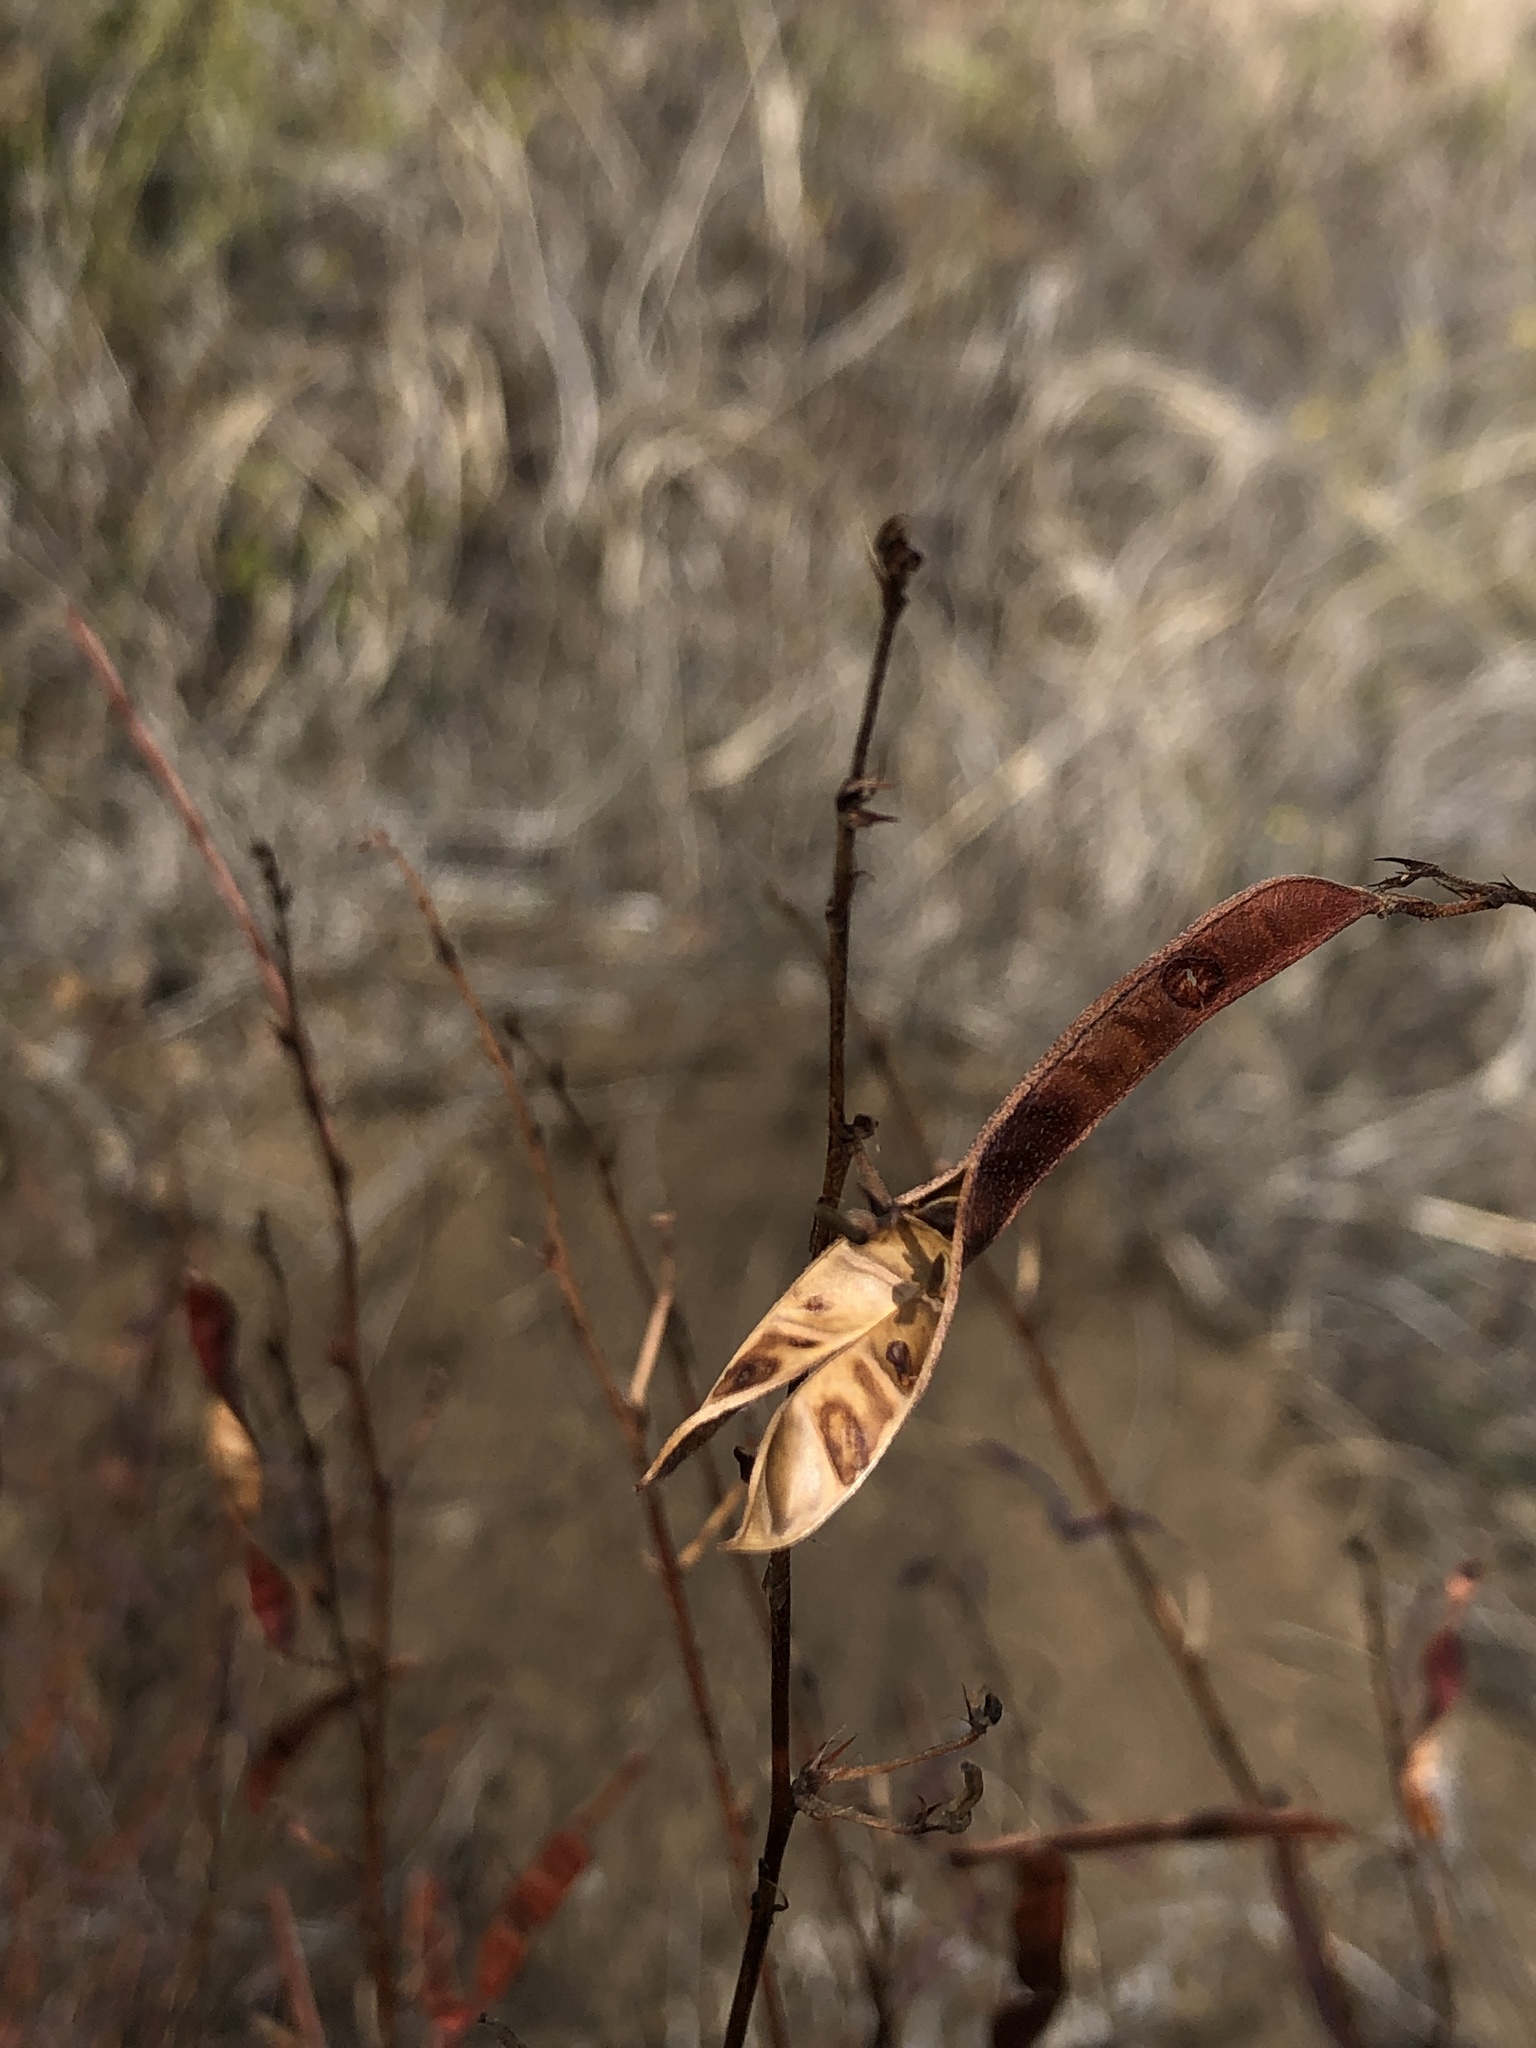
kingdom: Plantae
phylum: Tracheophyta
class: Magnoliopsida
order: Fabales
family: Fabaceae
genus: Chamaecrista
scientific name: Chamaecrista fasciculata
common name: Golden cassia
